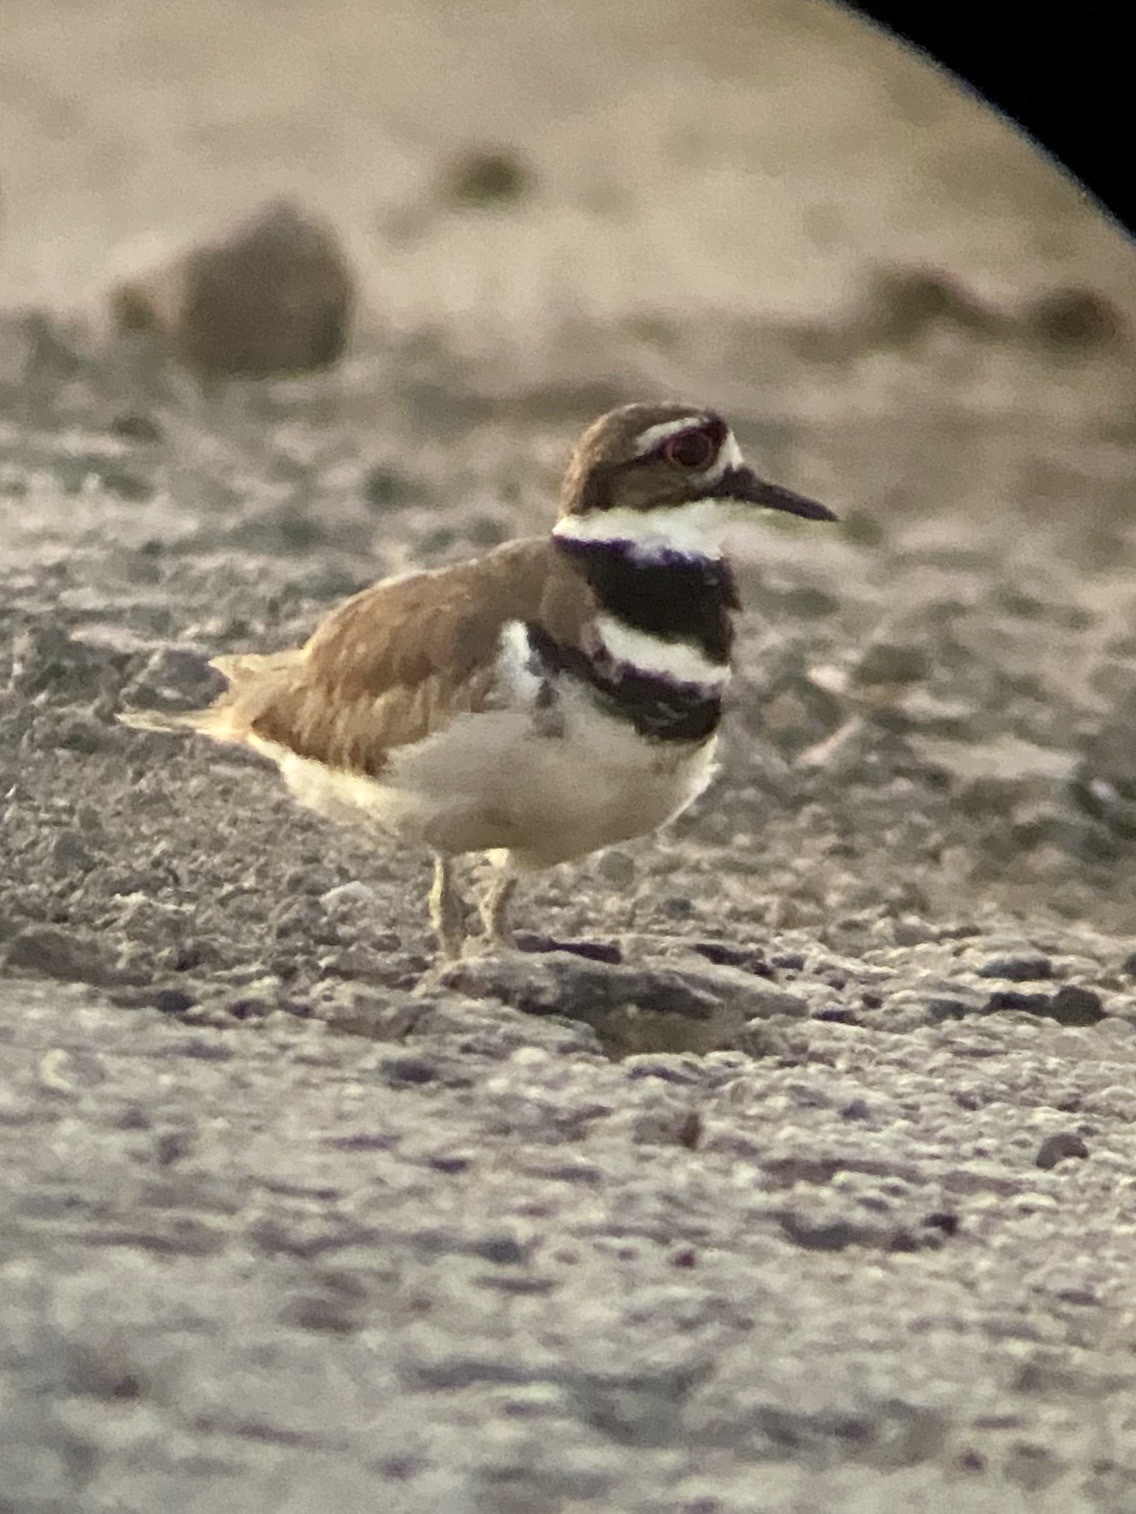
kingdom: Animalia
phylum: Chordata
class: Aves
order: Charadriiformes
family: Charadriidae
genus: Charadrius
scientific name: Charadrius vociferus
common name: Killdeer
